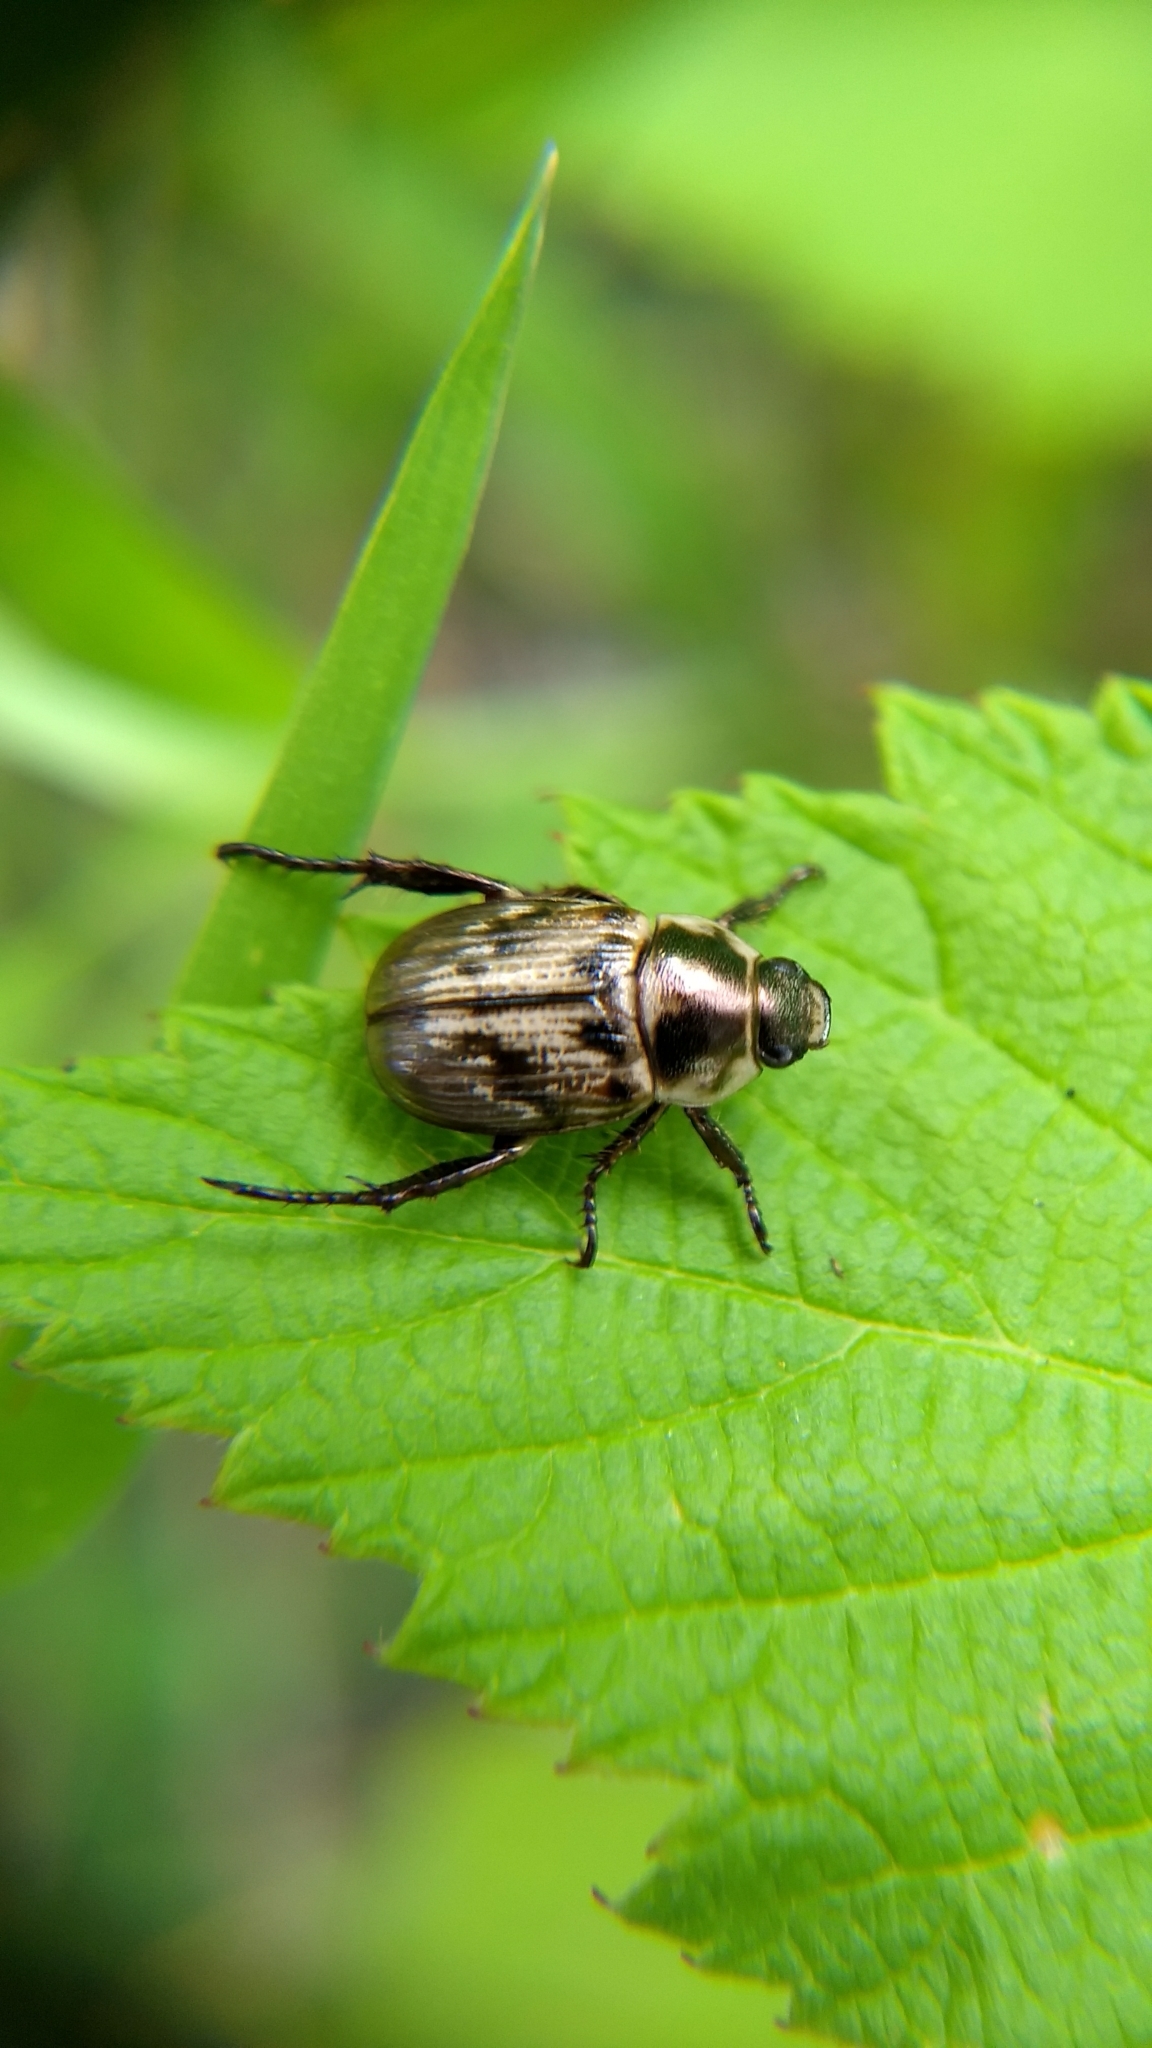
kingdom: Animalia
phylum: Arthropoda
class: Insecta
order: Coleoptera
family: Scarabaeidae
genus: Exomala
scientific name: Exomala orientalis
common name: Oriental beetle
